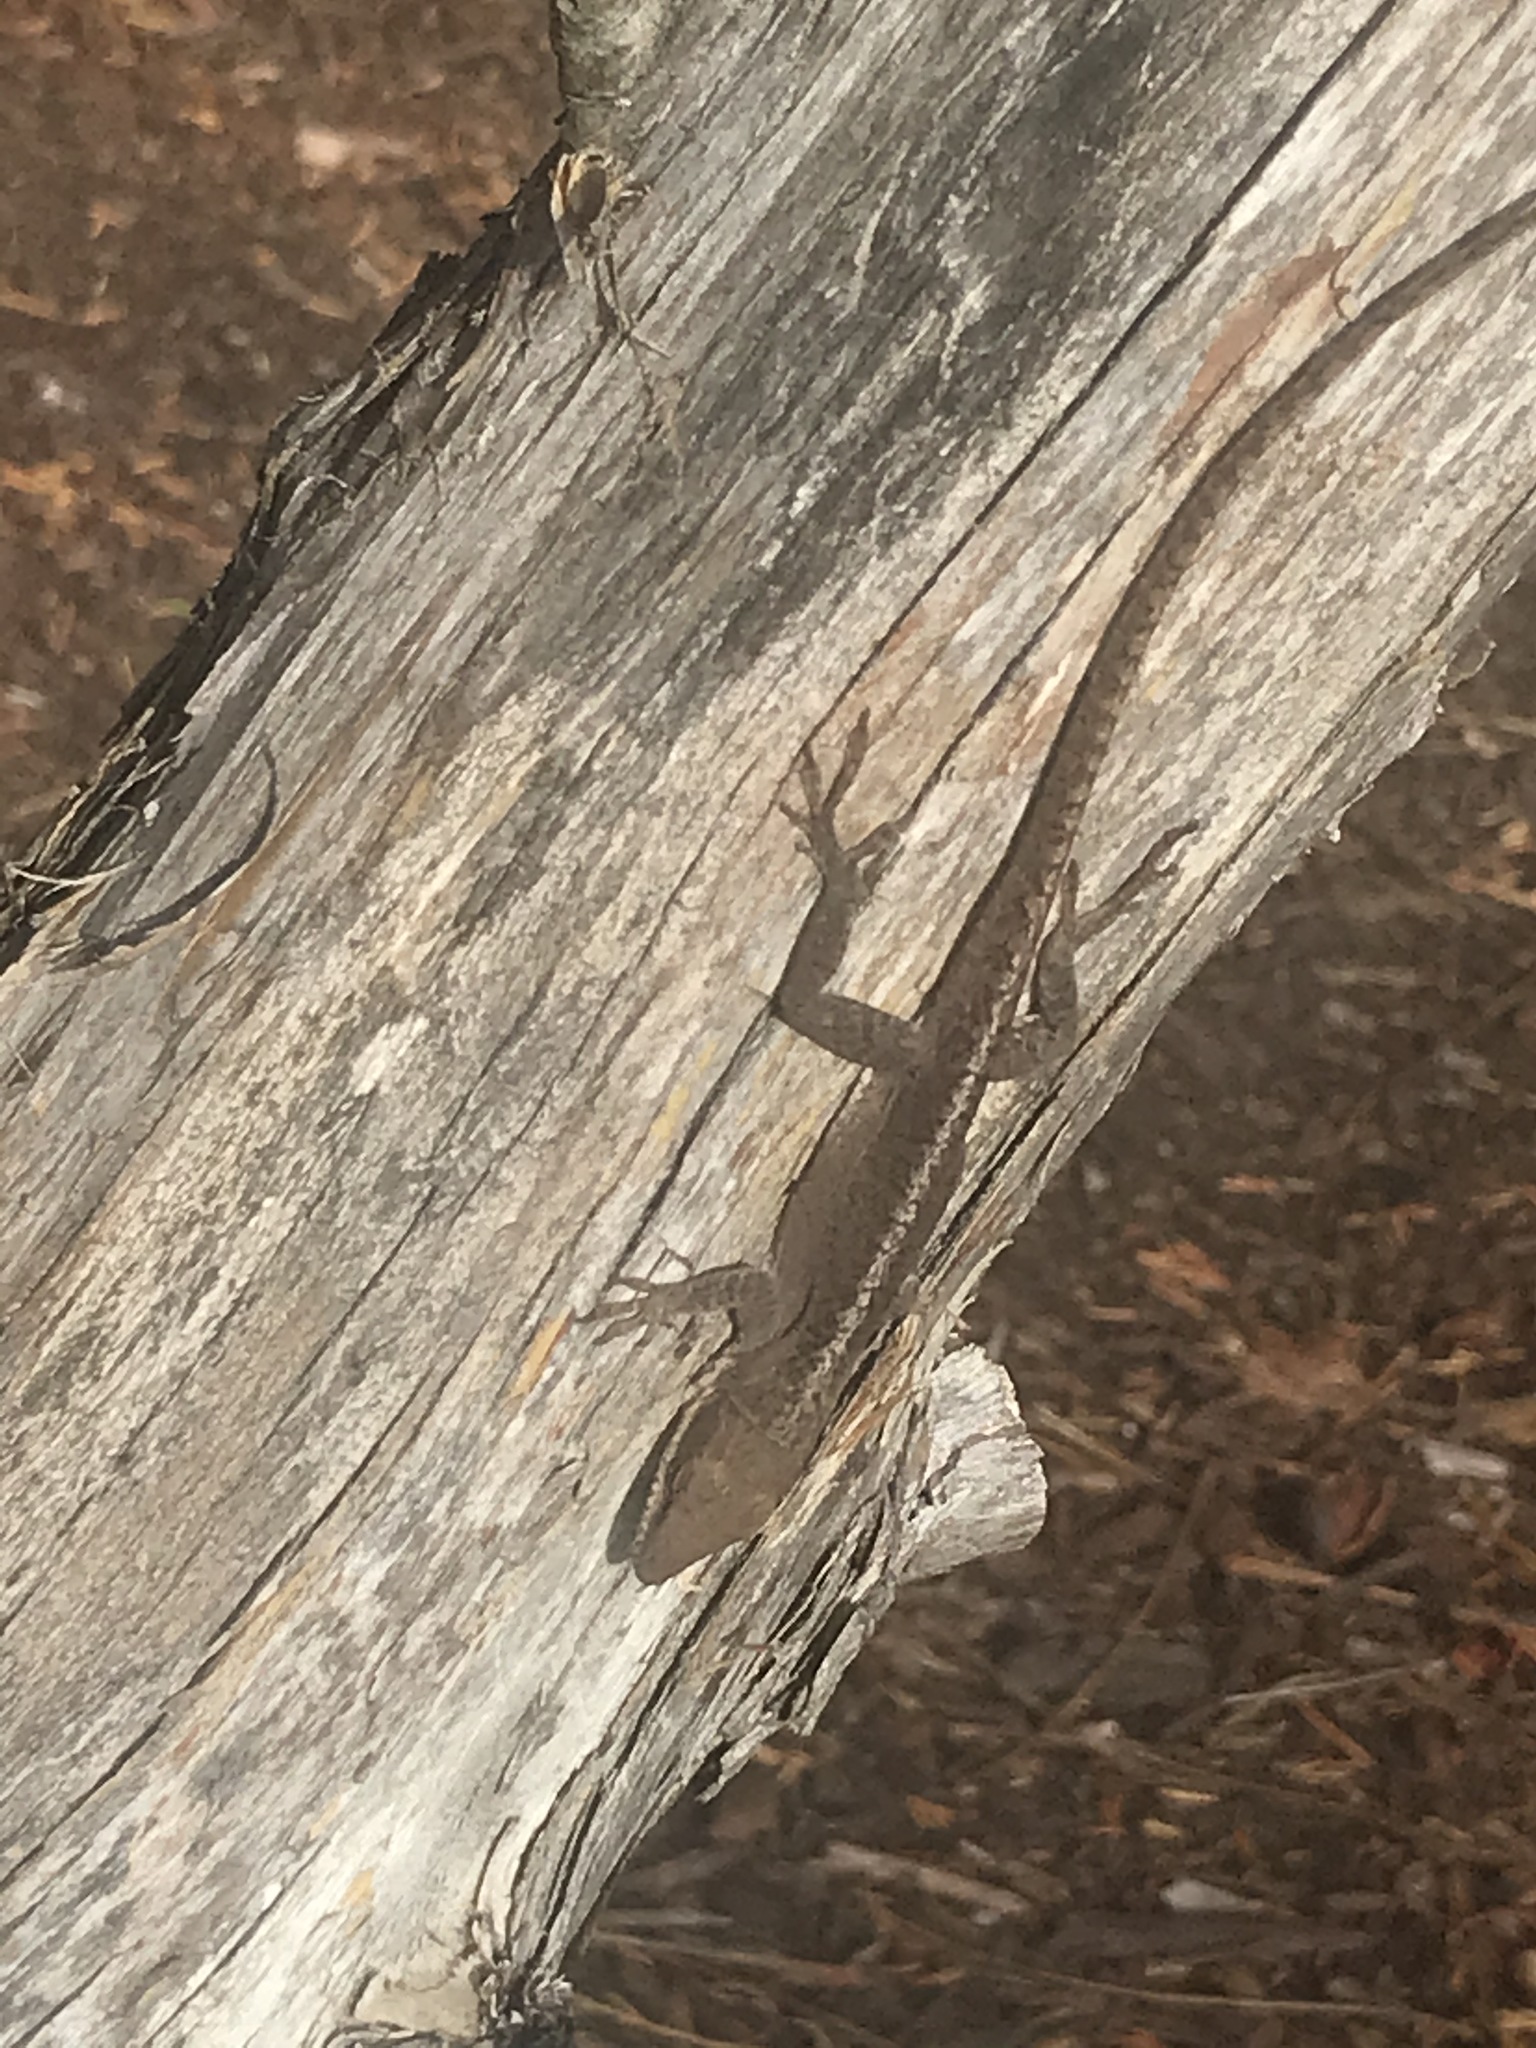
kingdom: Animalia
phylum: Chordata
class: Squamata
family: Dactyloidae
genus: Anolis
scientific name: Anolis carolinensis
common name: Green anole
